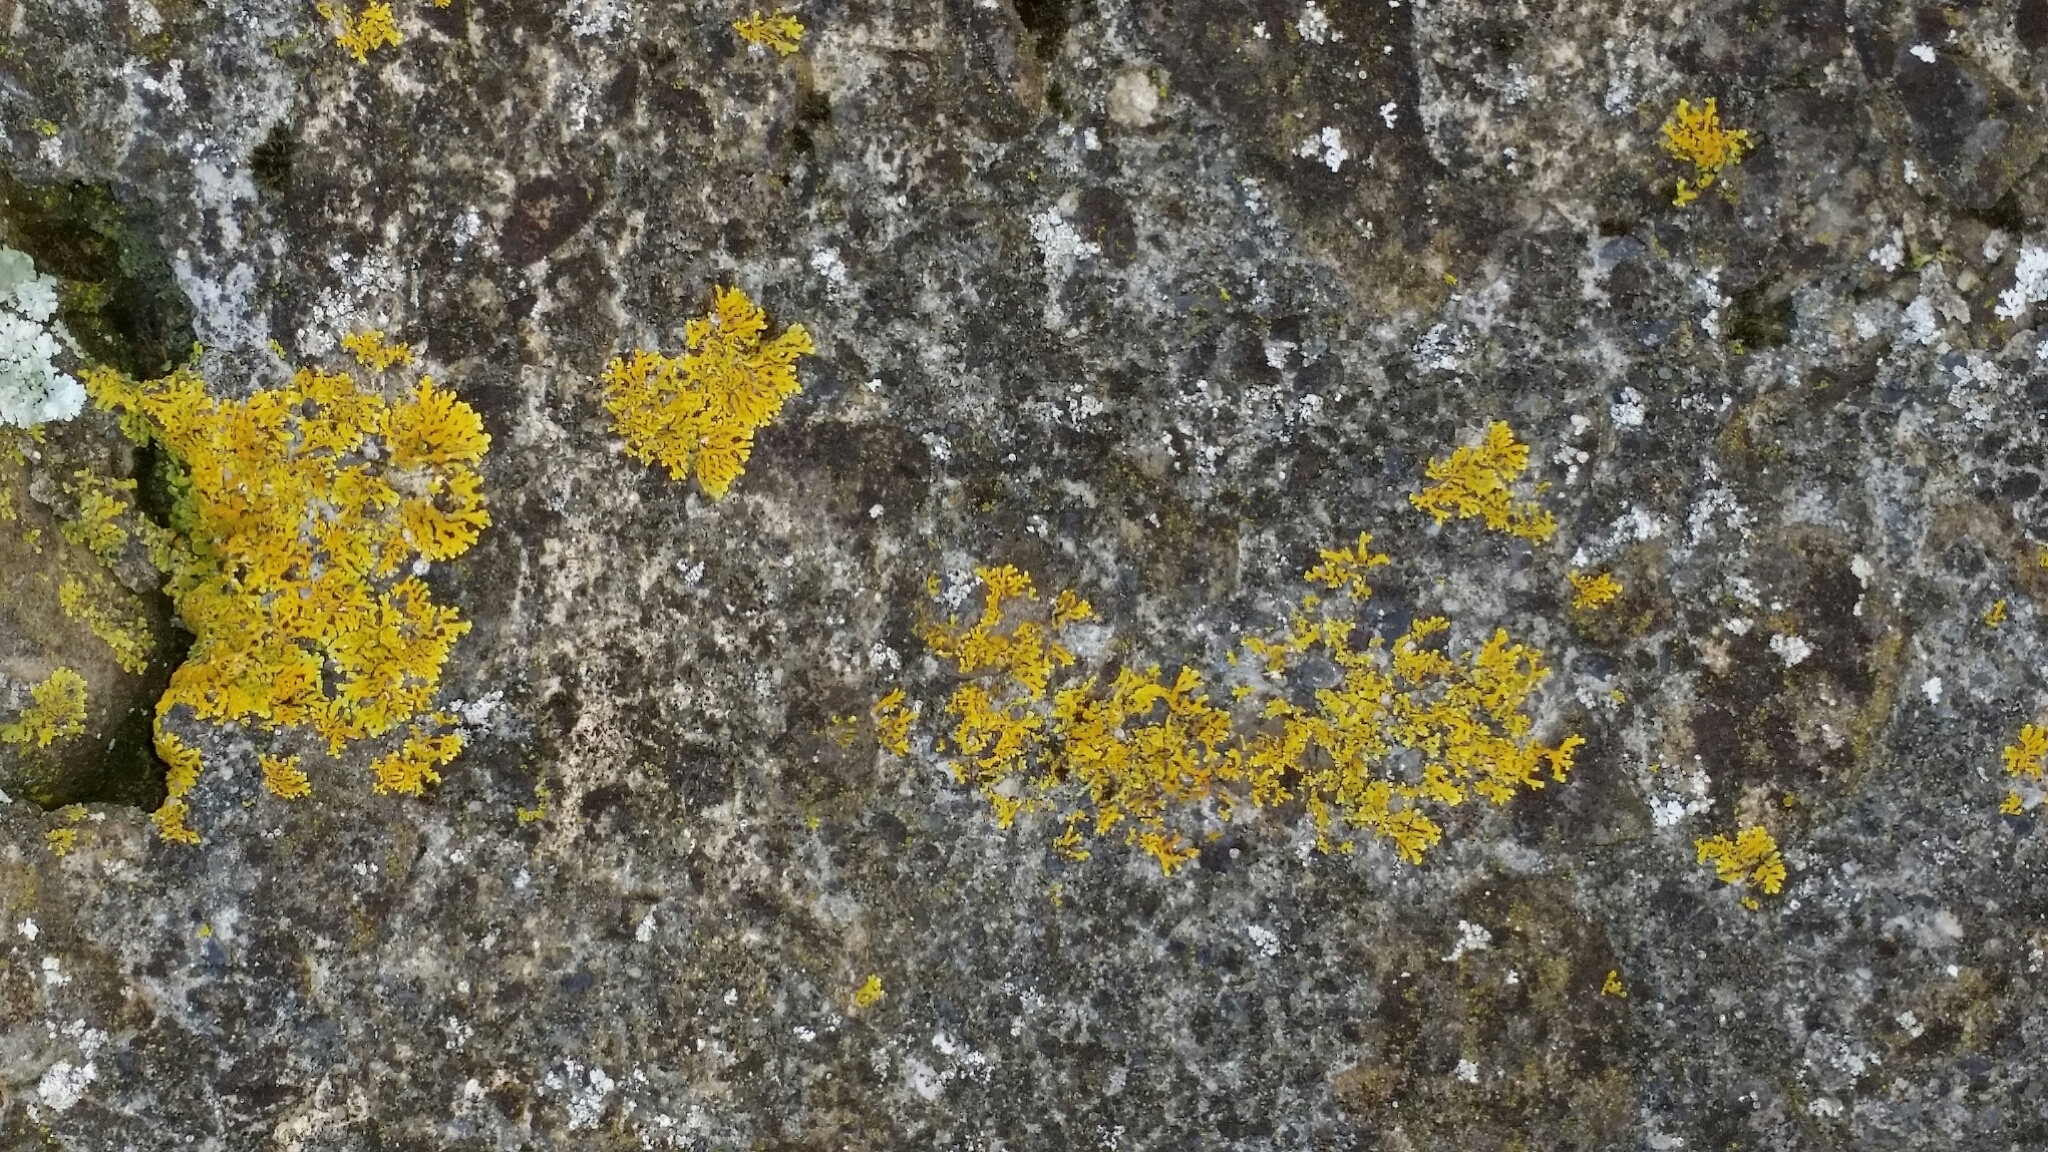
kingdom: Fungi
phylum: Ascomycota
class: Lecanoromycetes
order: Teloschistales
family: Teloschistaceae
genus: Dufourea
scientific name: Dufourea ligulata
